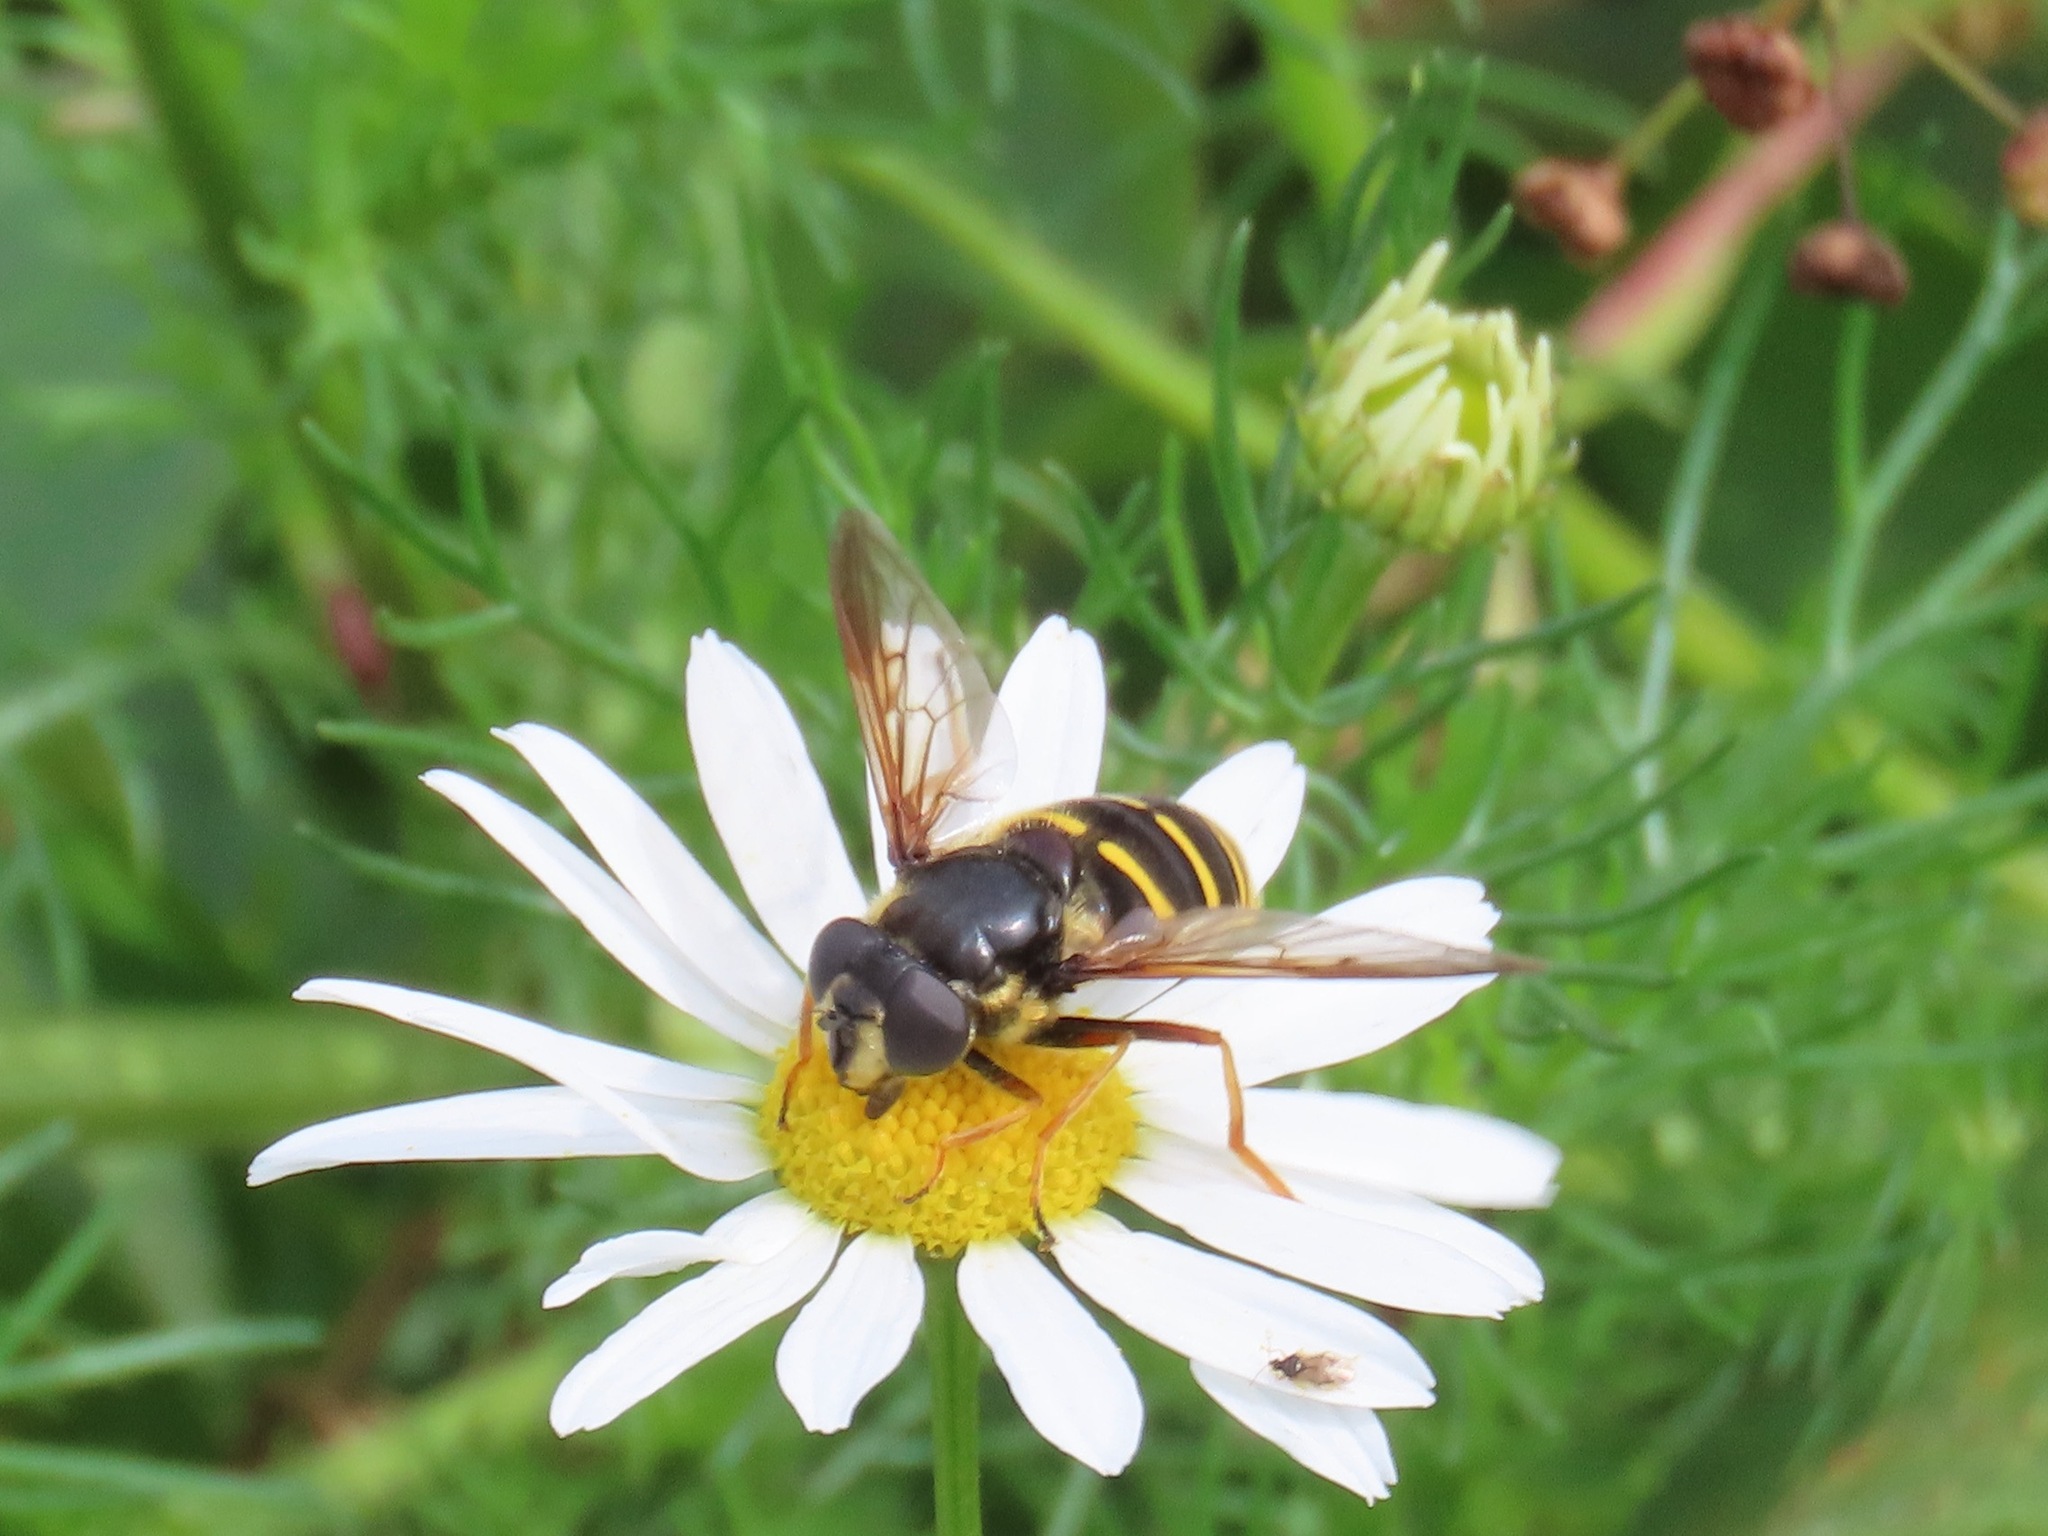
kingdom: Animalia
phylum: Arthropoda
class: Insecta
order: Diptera
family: Syrphidae
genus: Sericomyia
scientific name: Sericomyia chalcopyga
